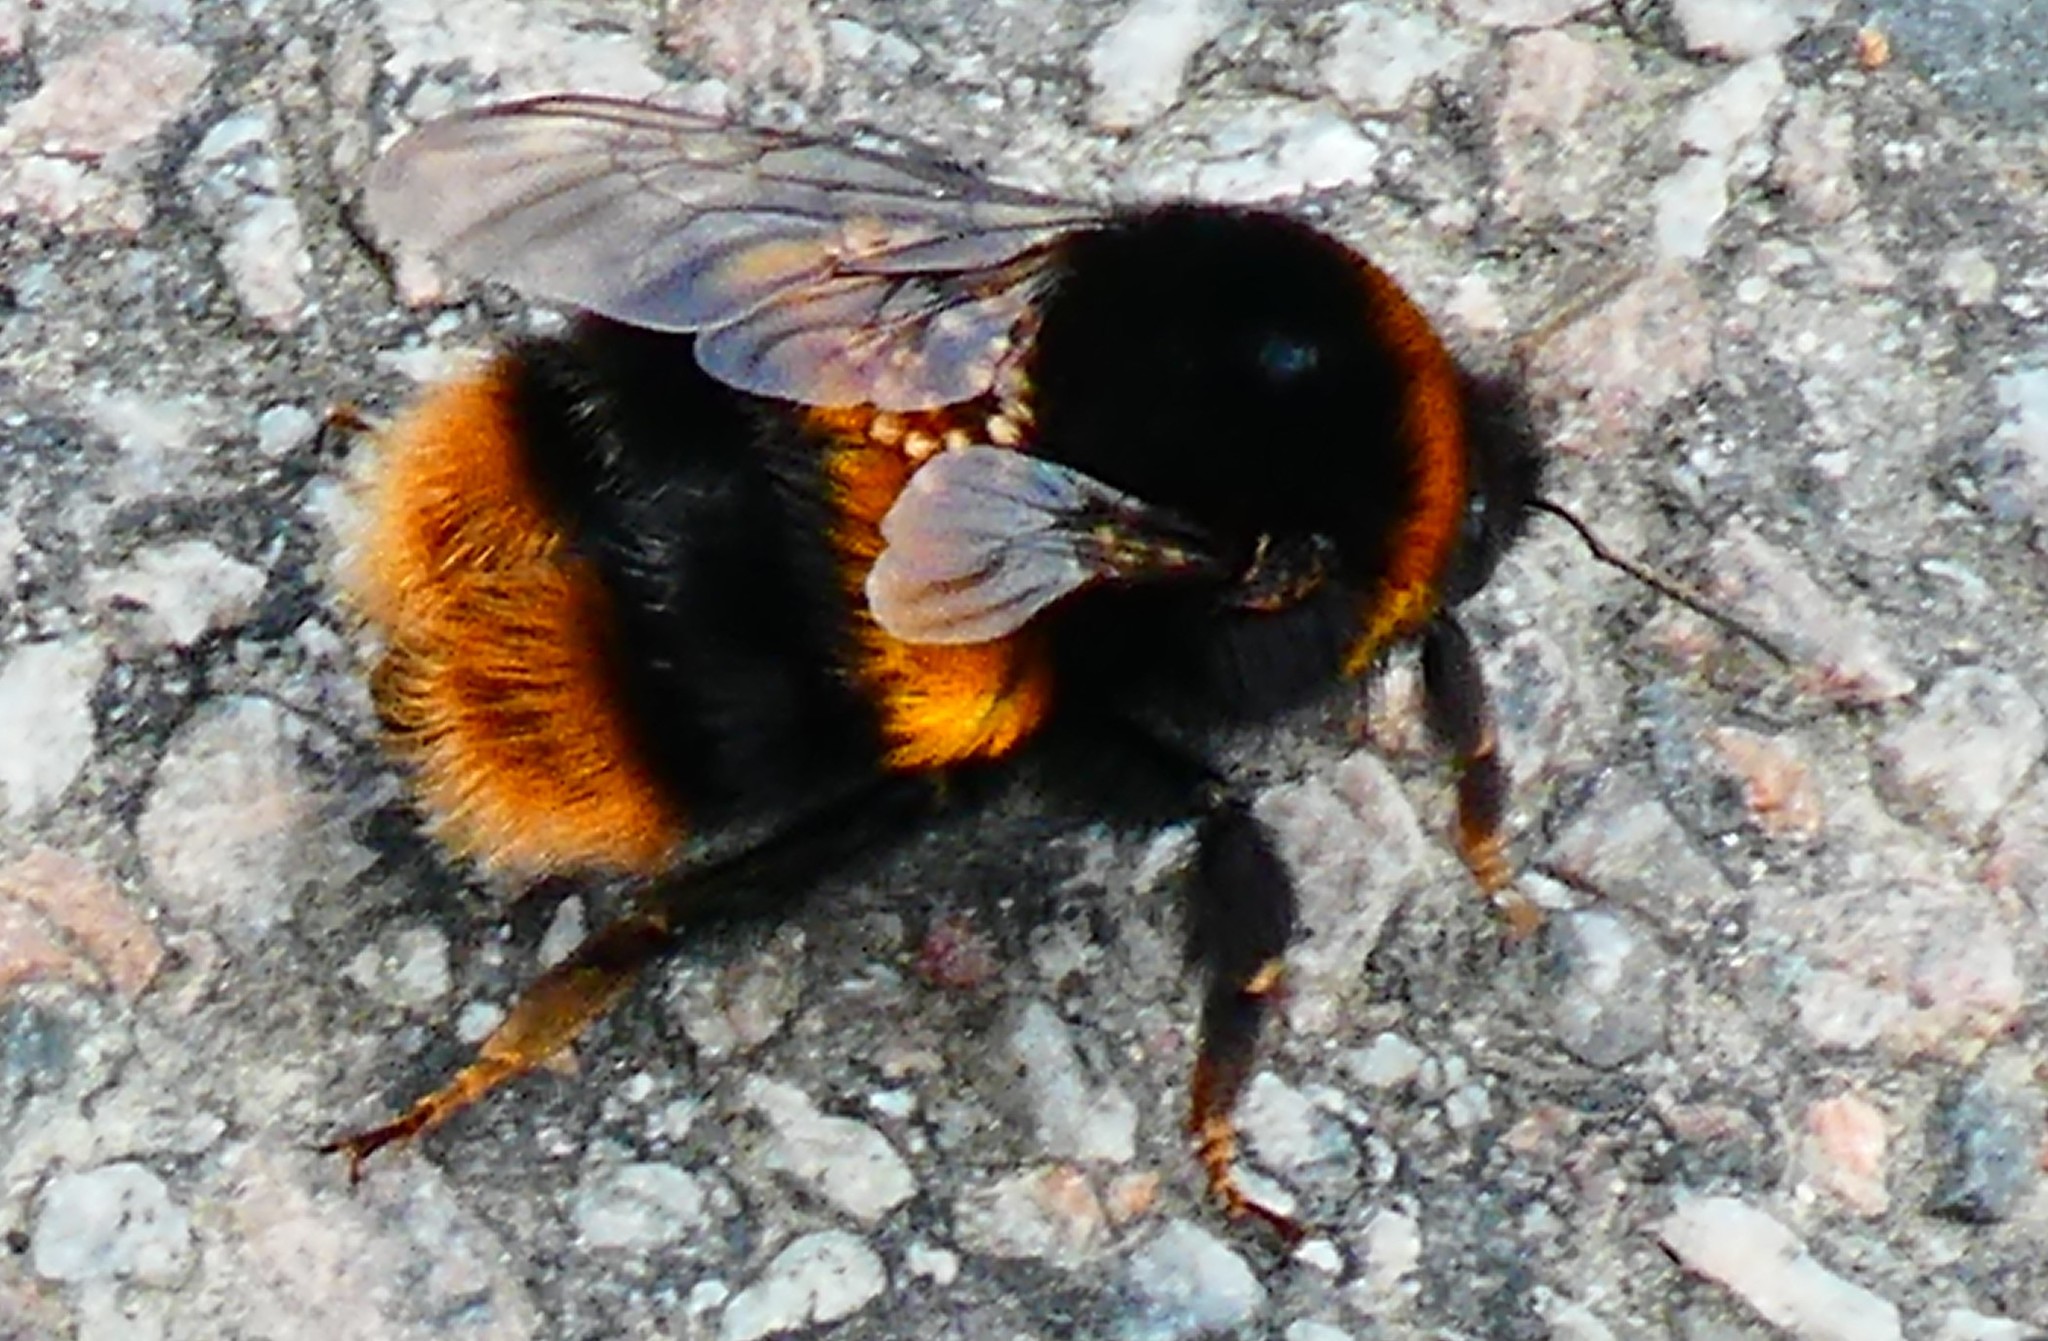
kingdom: Animalia
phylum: Arthropoda
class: Insecta
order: Hymenoptera
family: Apidae
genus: Bombus
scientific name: Bombus terrestris
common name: Buff-tailed bumblebee
